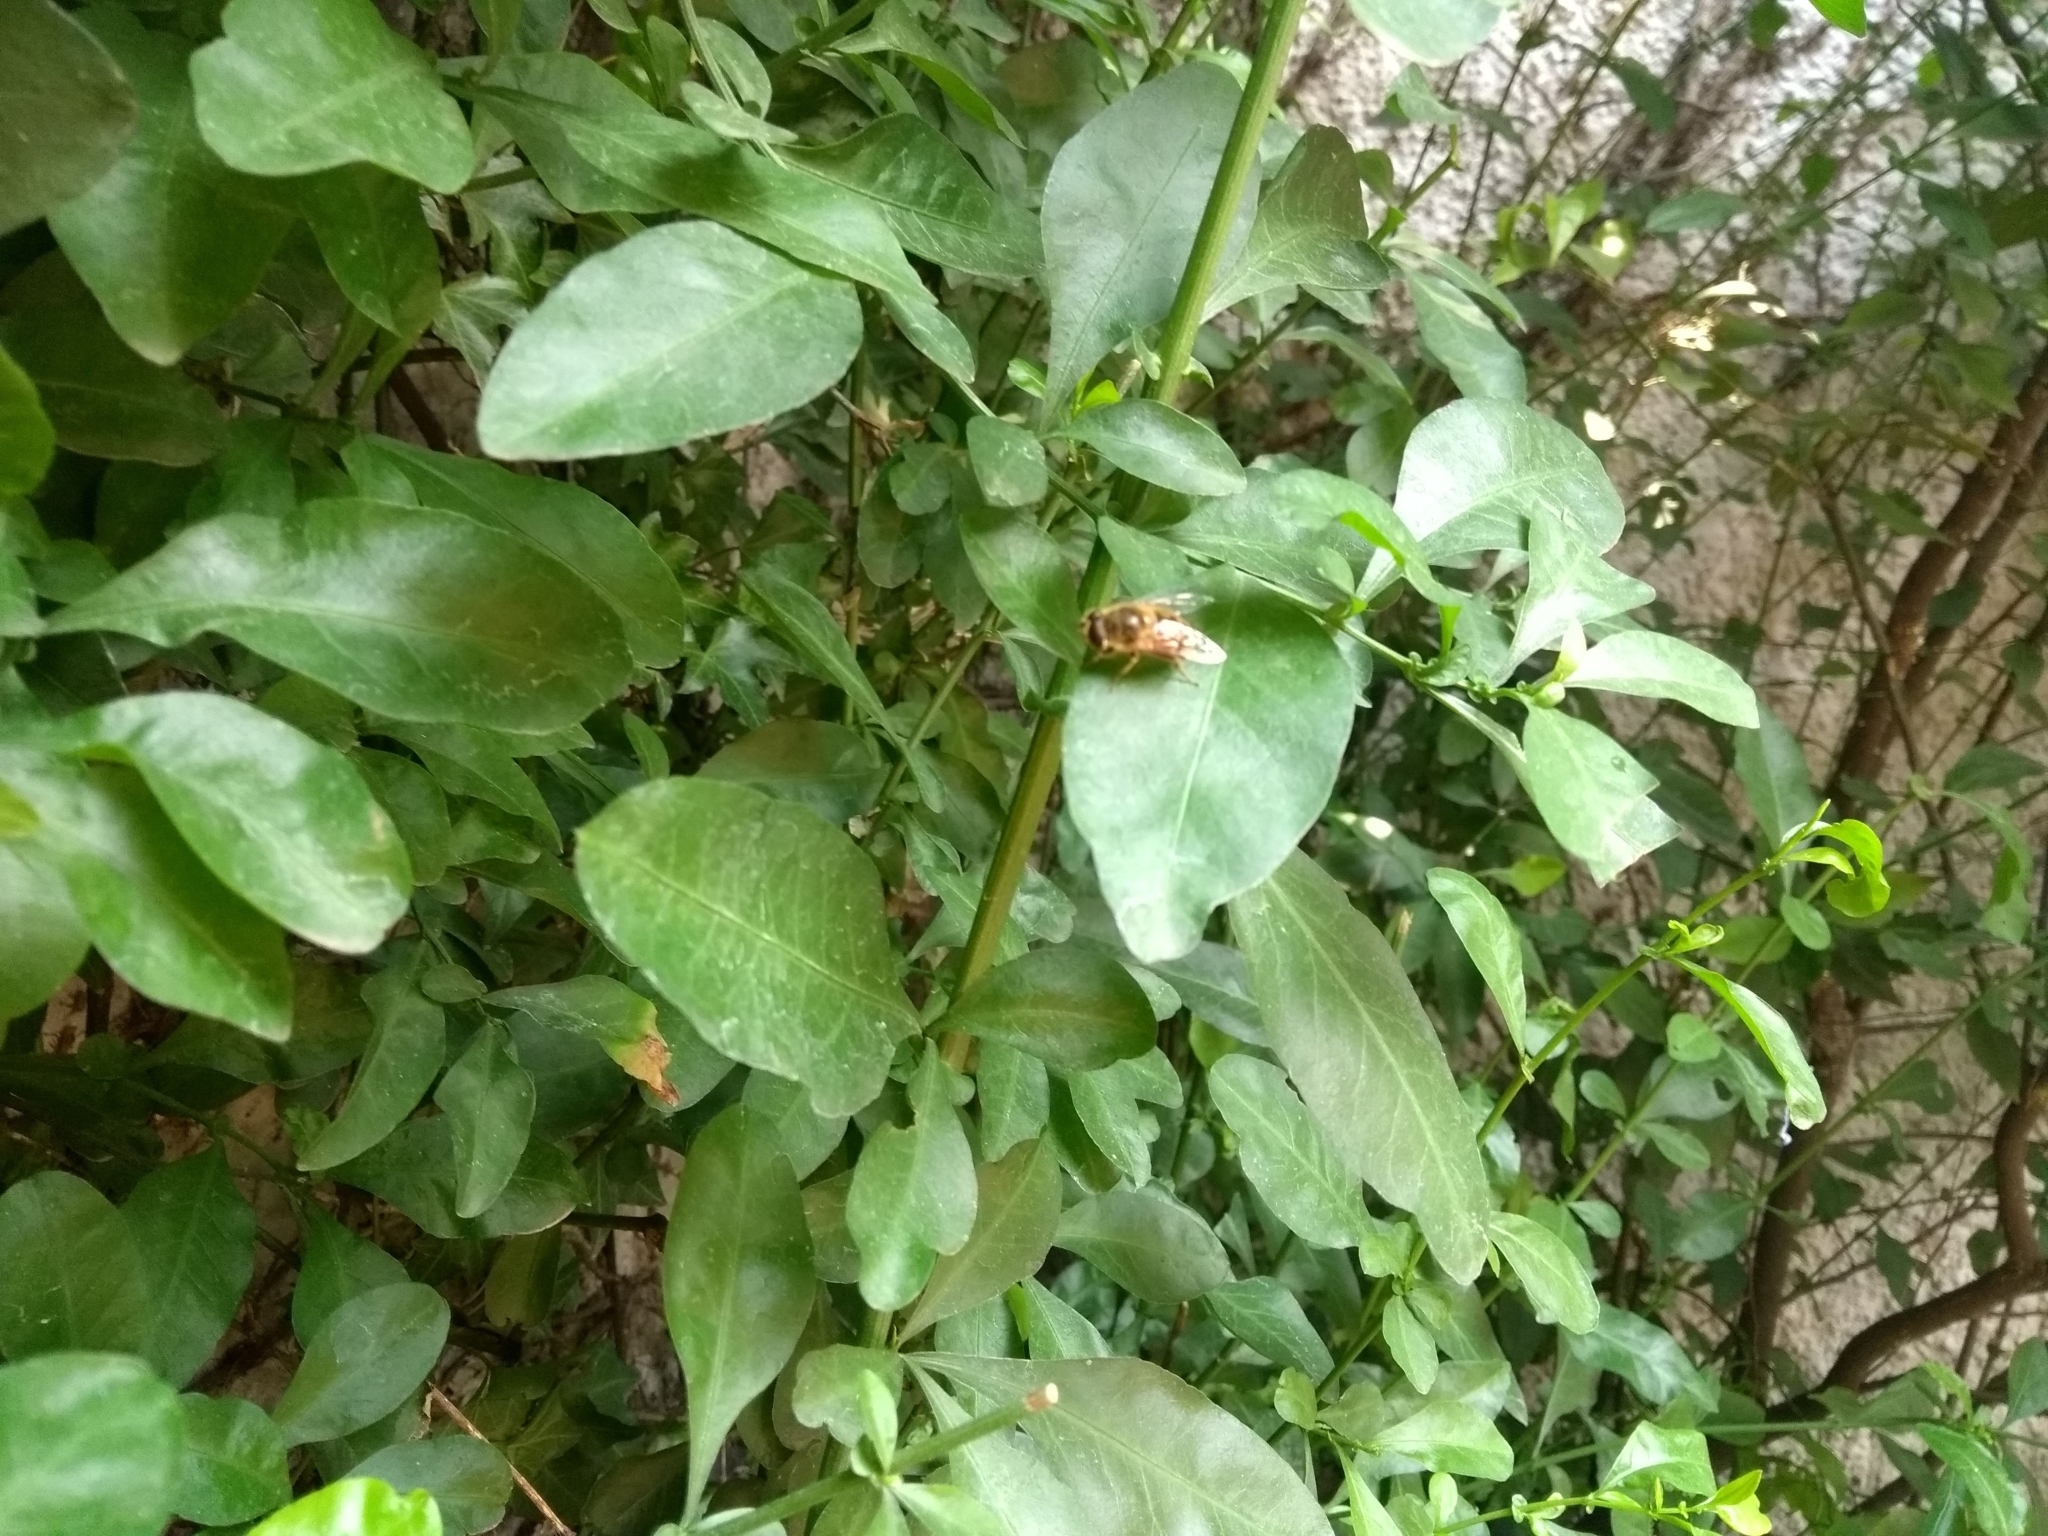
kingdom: Animalia
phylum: Arthropoda
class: Insecta
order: Diptera
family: Syrphidae
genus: Eristalis
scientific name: Eristalis tenax
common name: Drone fly
